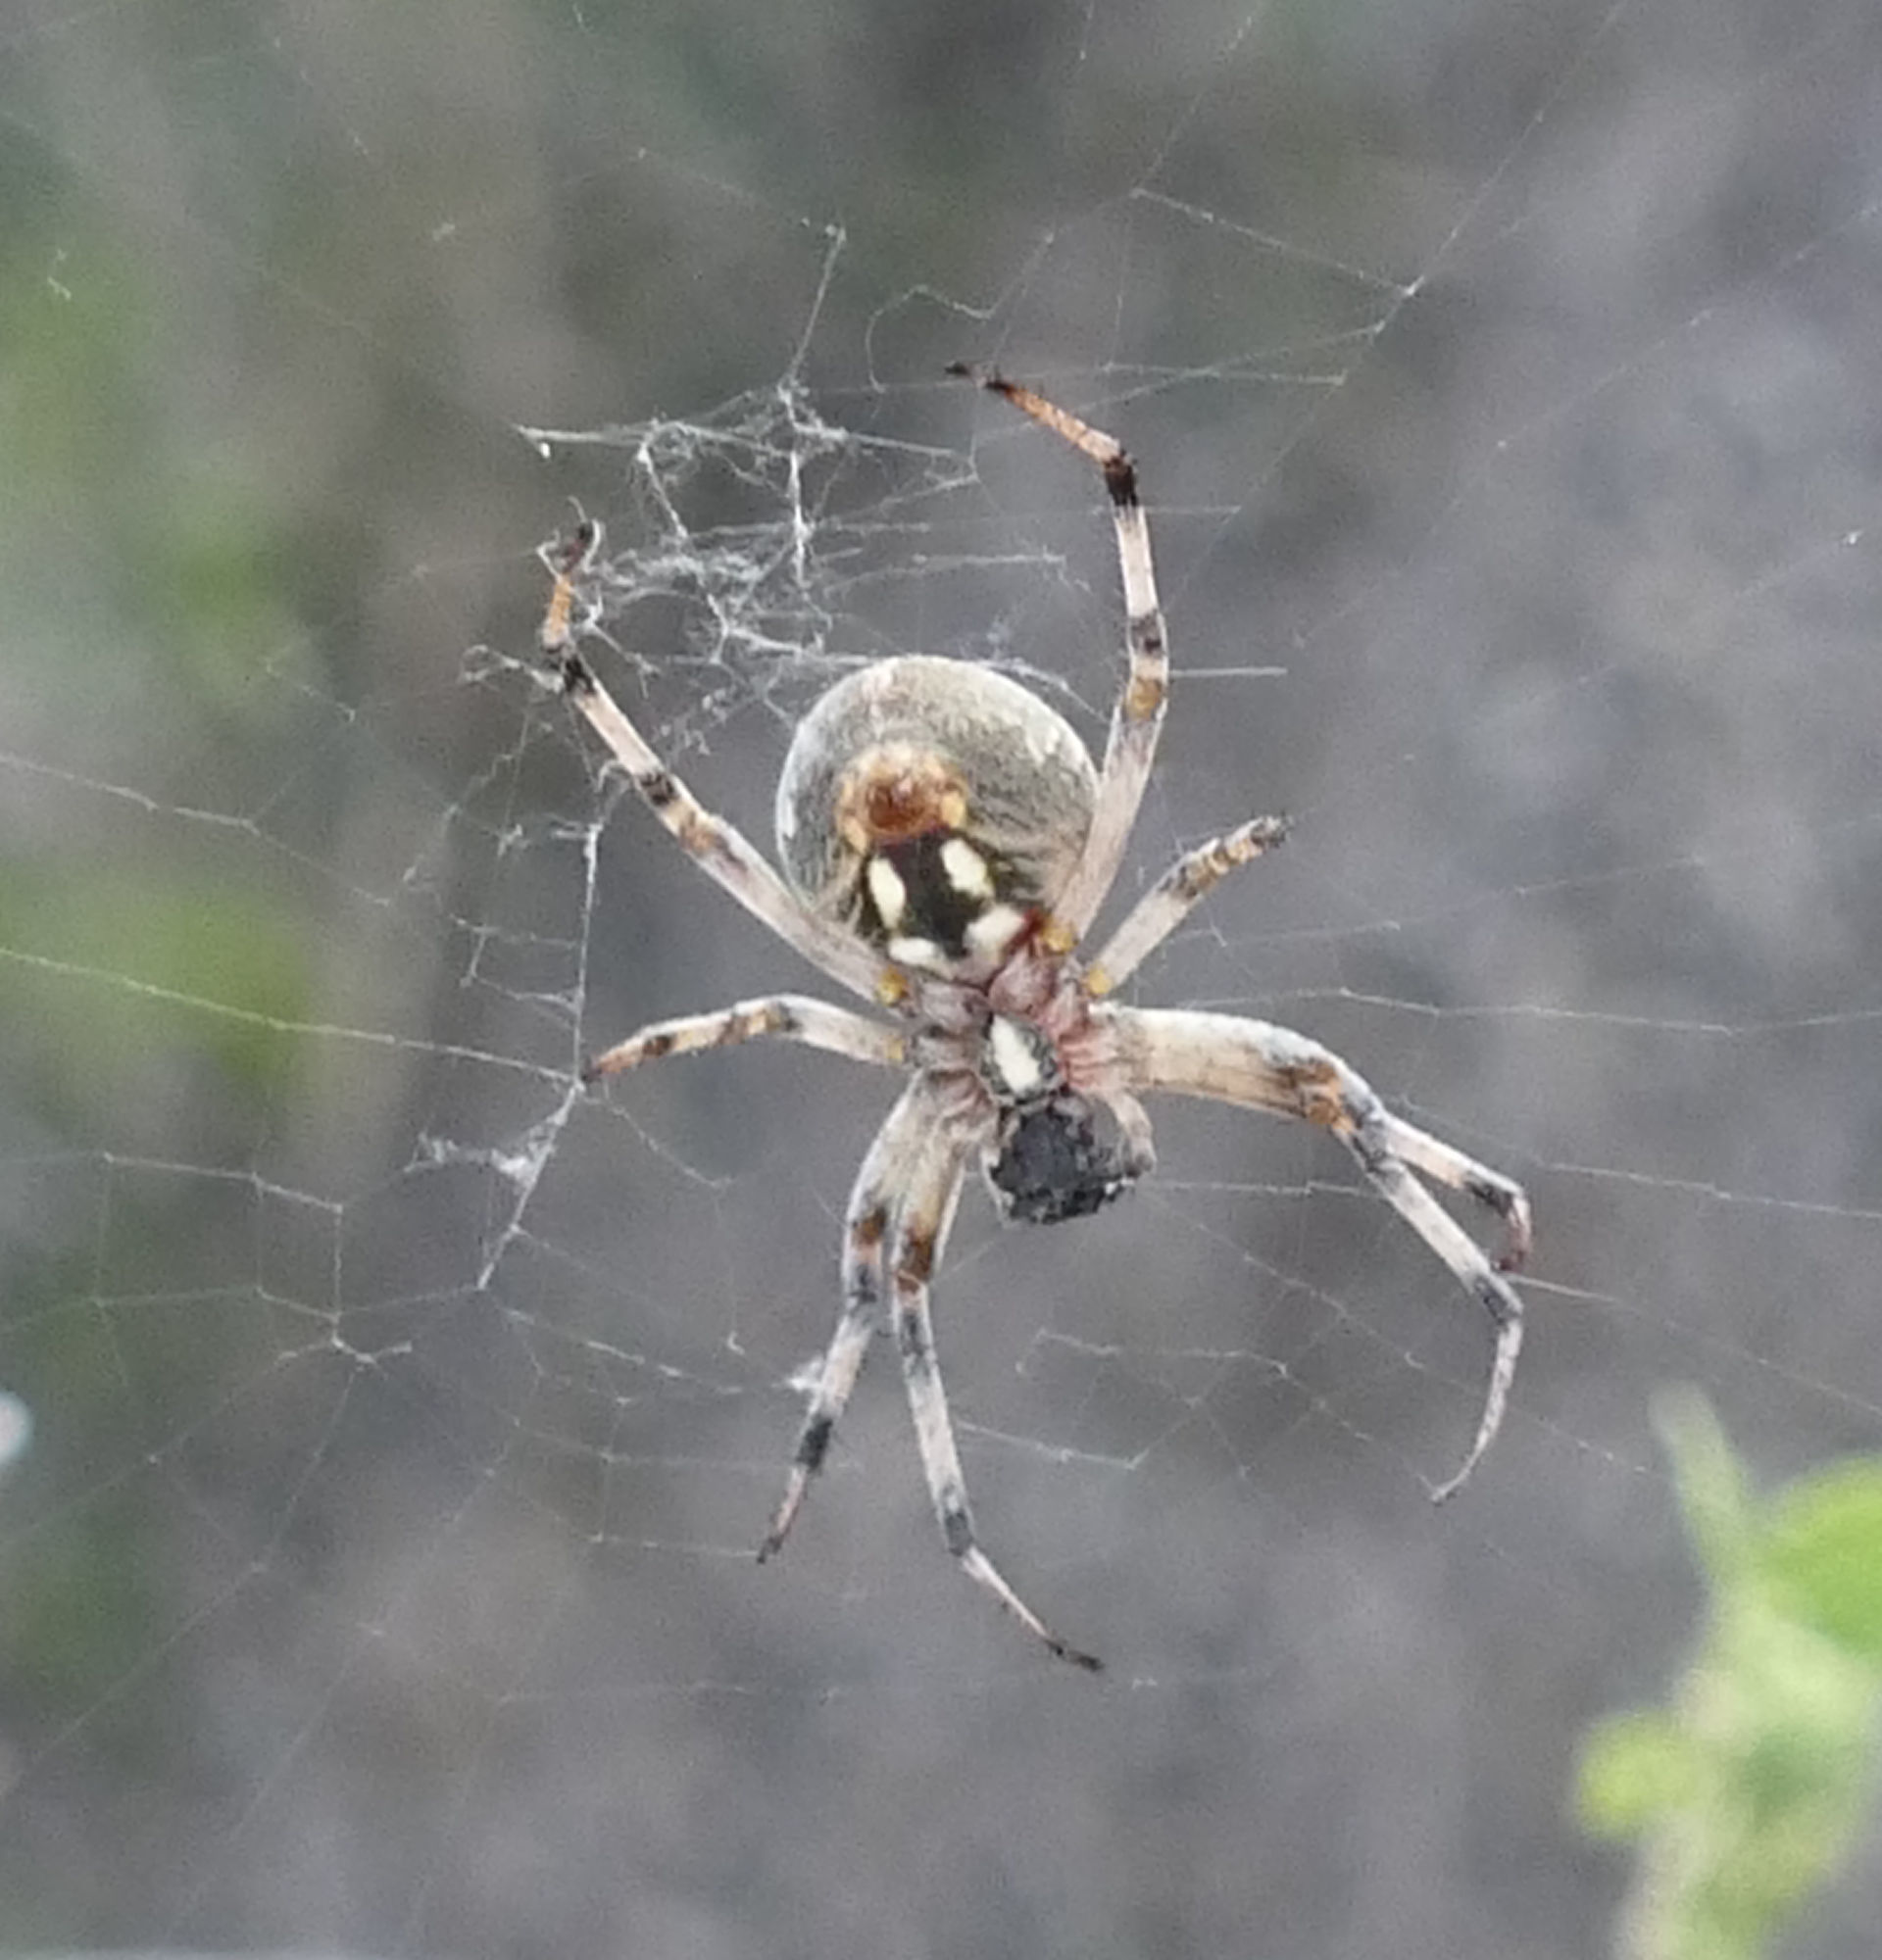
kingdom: Animalia
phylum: Arthropoda
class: Arachnida
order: Araneae
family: Araneidae
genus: Neoscona
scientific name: Neoscona oaxacensis
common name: Orb weavers
